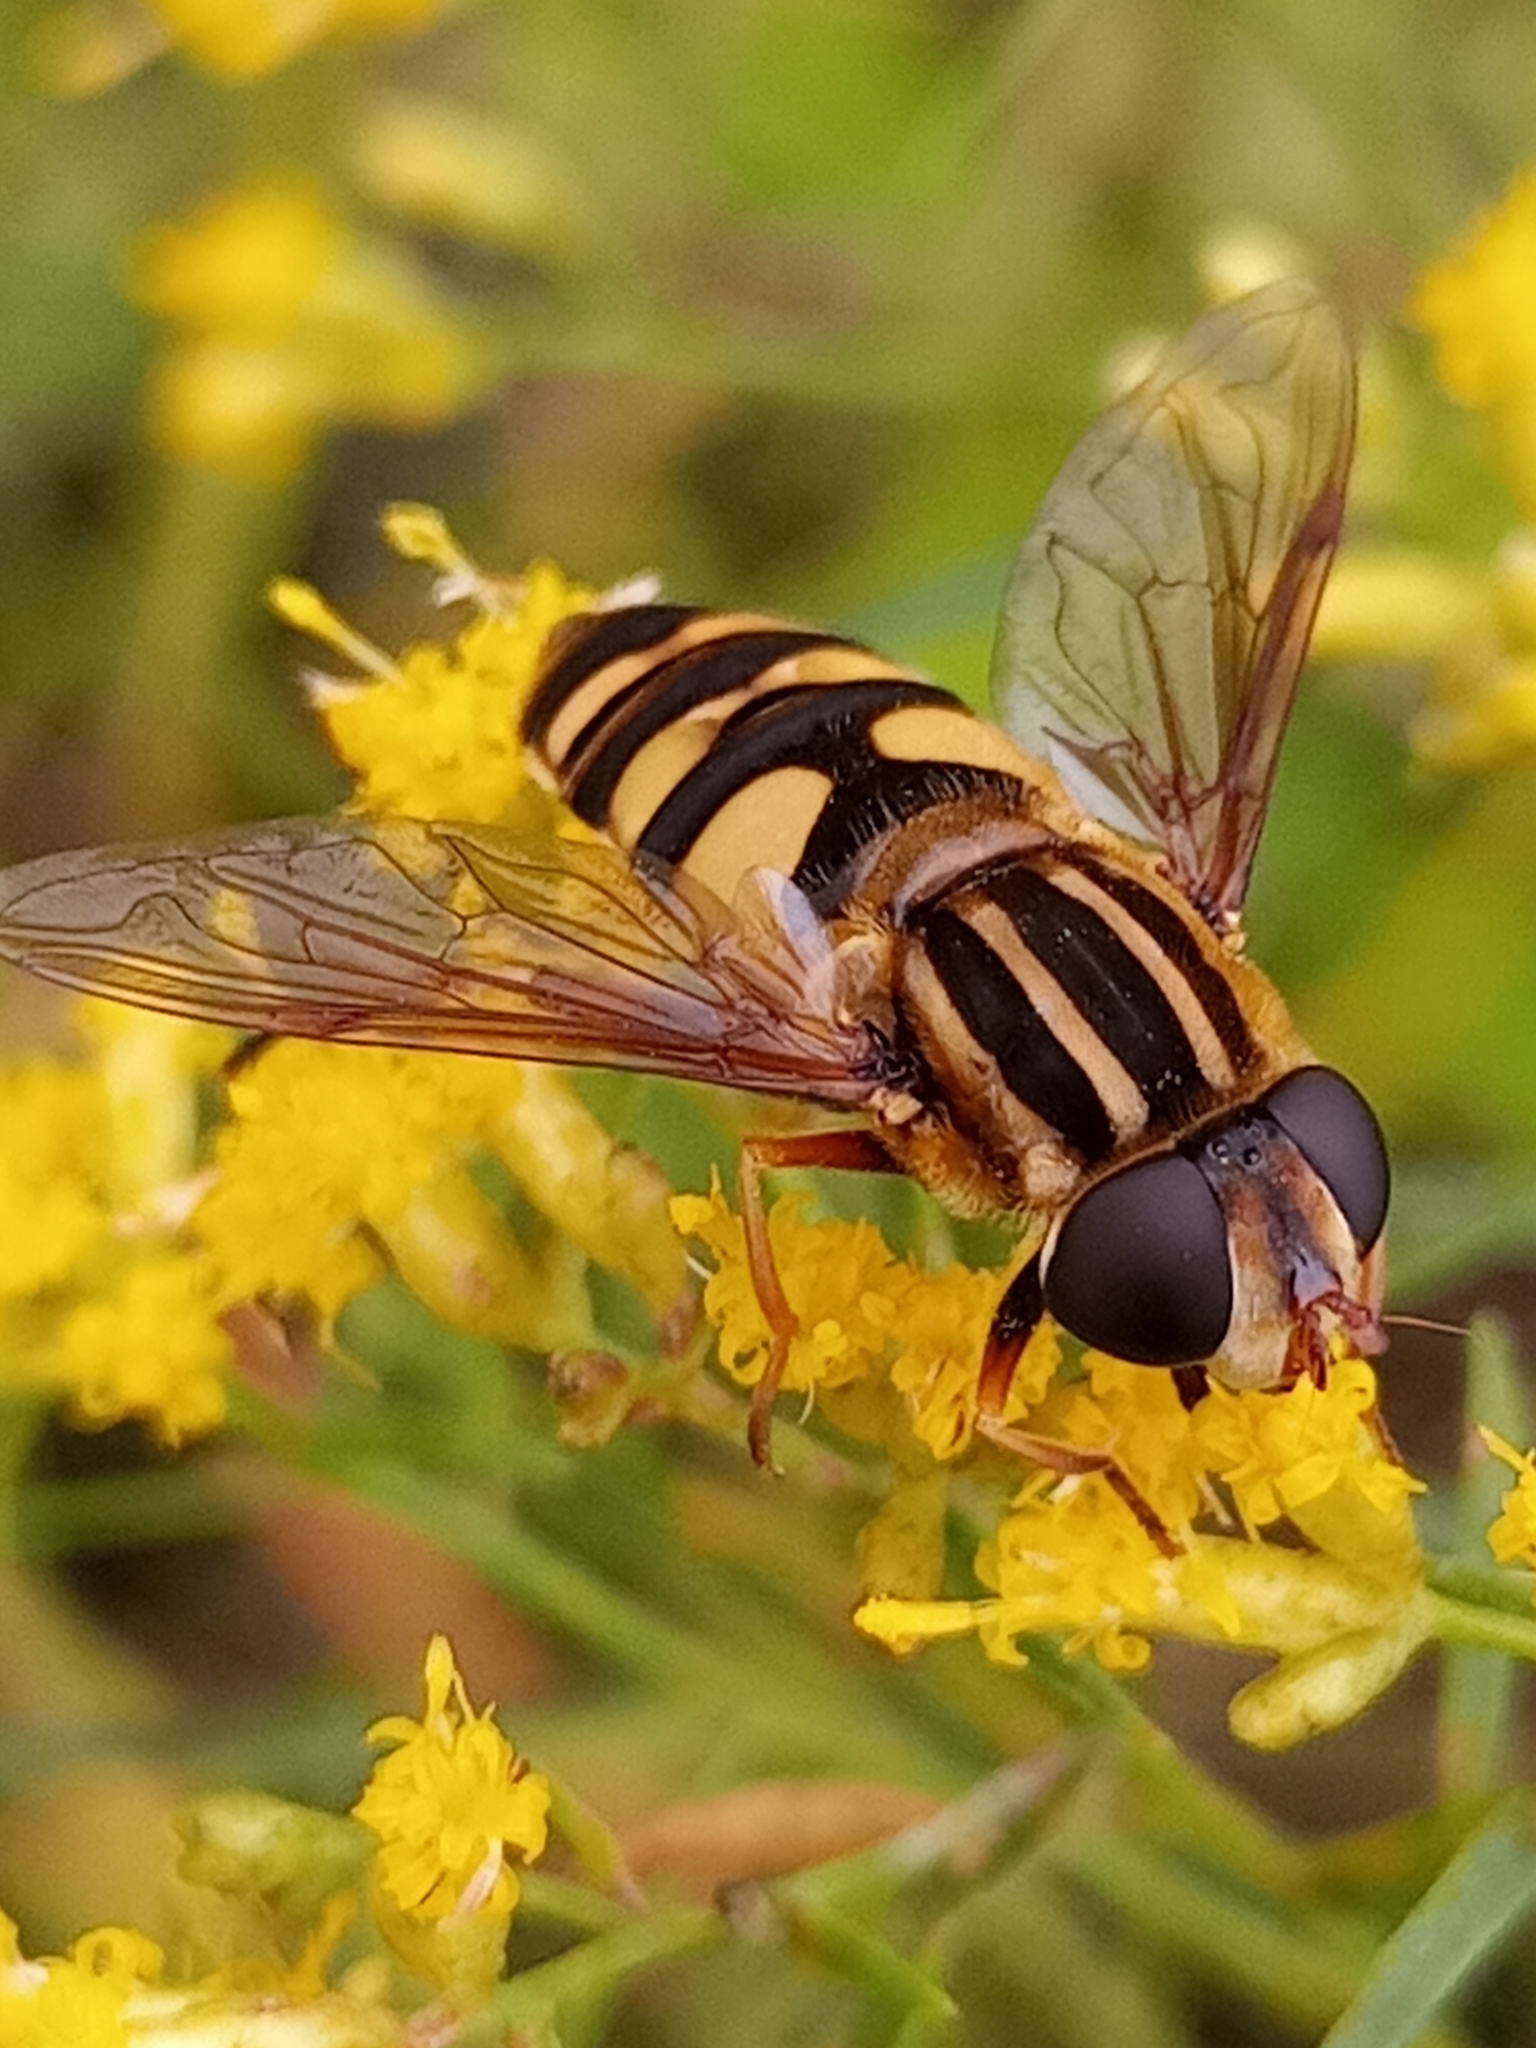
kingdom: Animalia
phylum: Arthropoda
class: Insecta
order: Diptera
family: Syrphidae
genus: Helophilus
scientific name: Helophilus fasciatus
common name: Narrow-headed marsh fly
